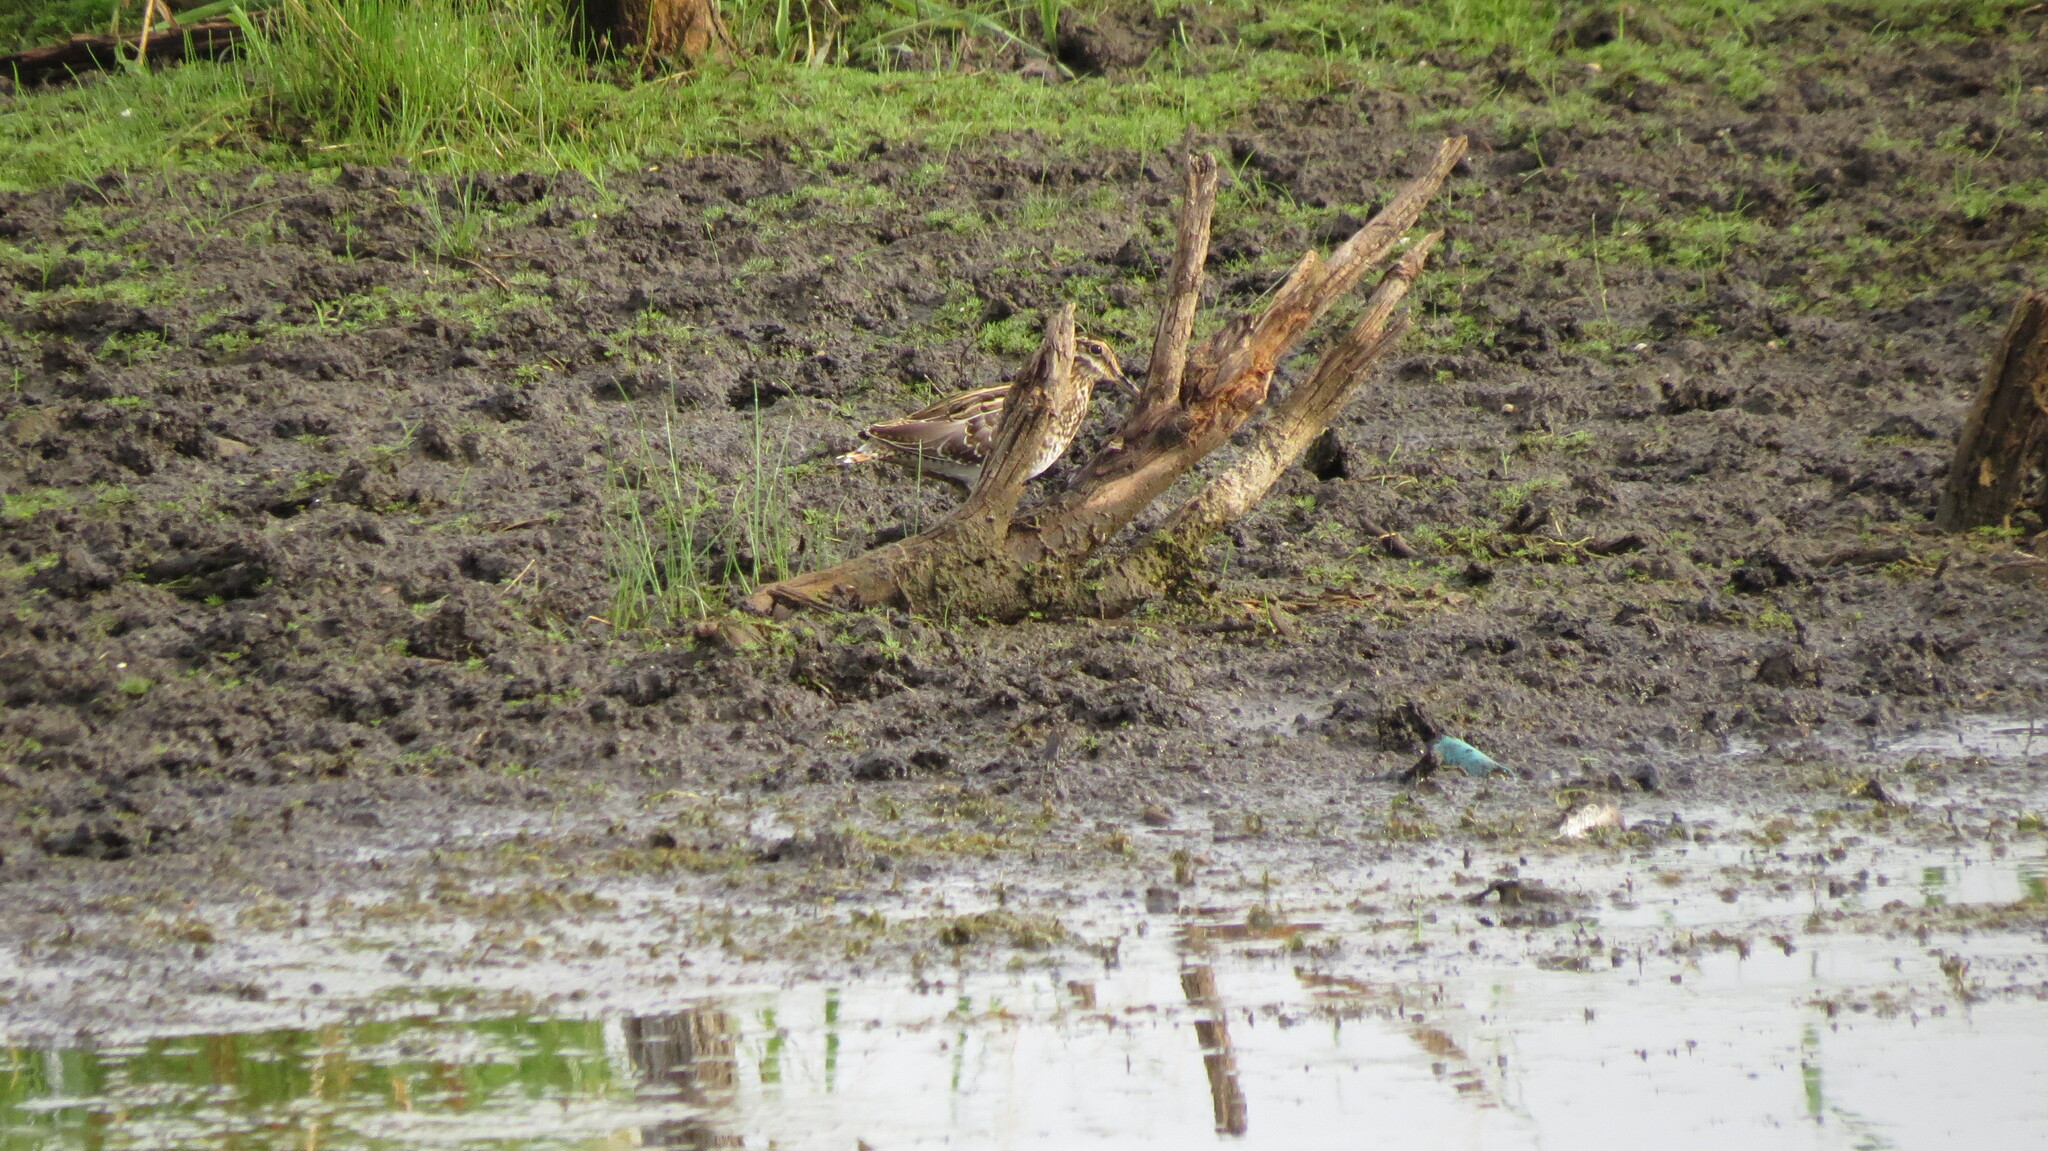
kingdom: Animalia
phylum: Chordata
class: Aves
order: Charadriiformes
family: Scolopacidae
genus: Gallinago
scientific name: Gallinago delicata
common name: Wilson's snipe
